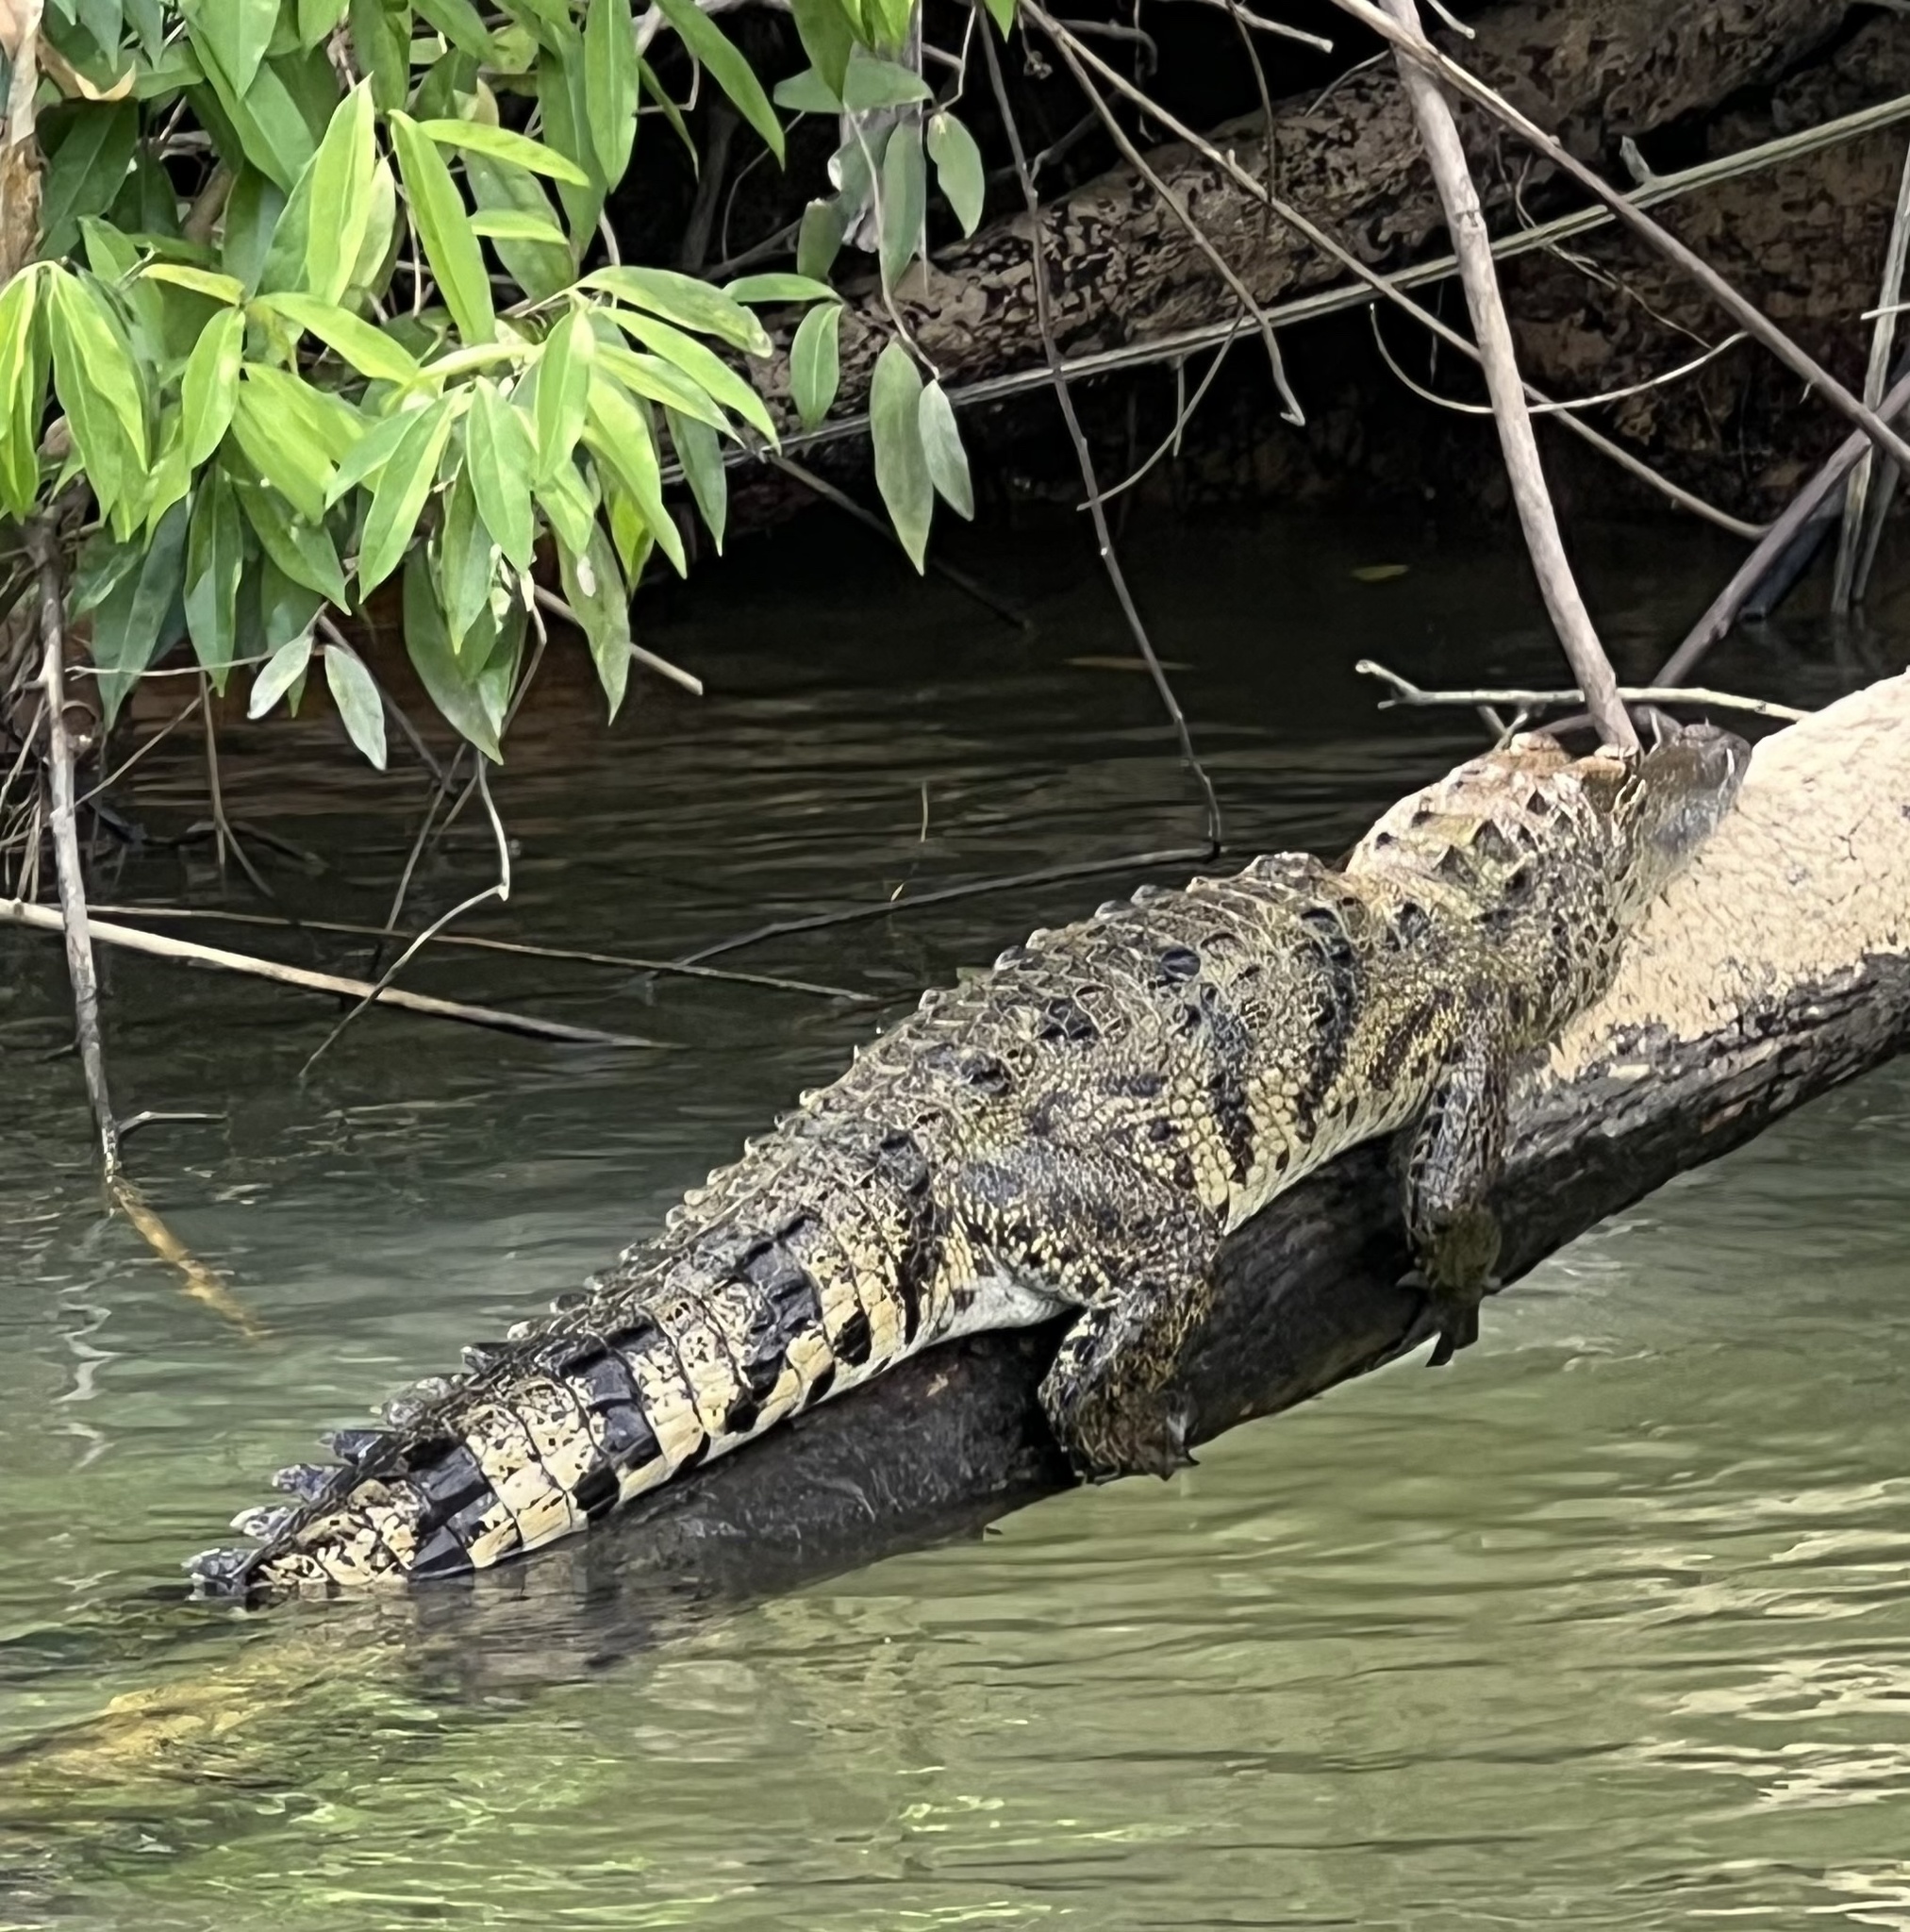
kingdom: Animalia
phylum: Chordata
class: Crocodylia
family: Crocodylidae
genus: Crocodylus
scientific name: Crocodylus moreletii
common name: Morelet's crocodile
